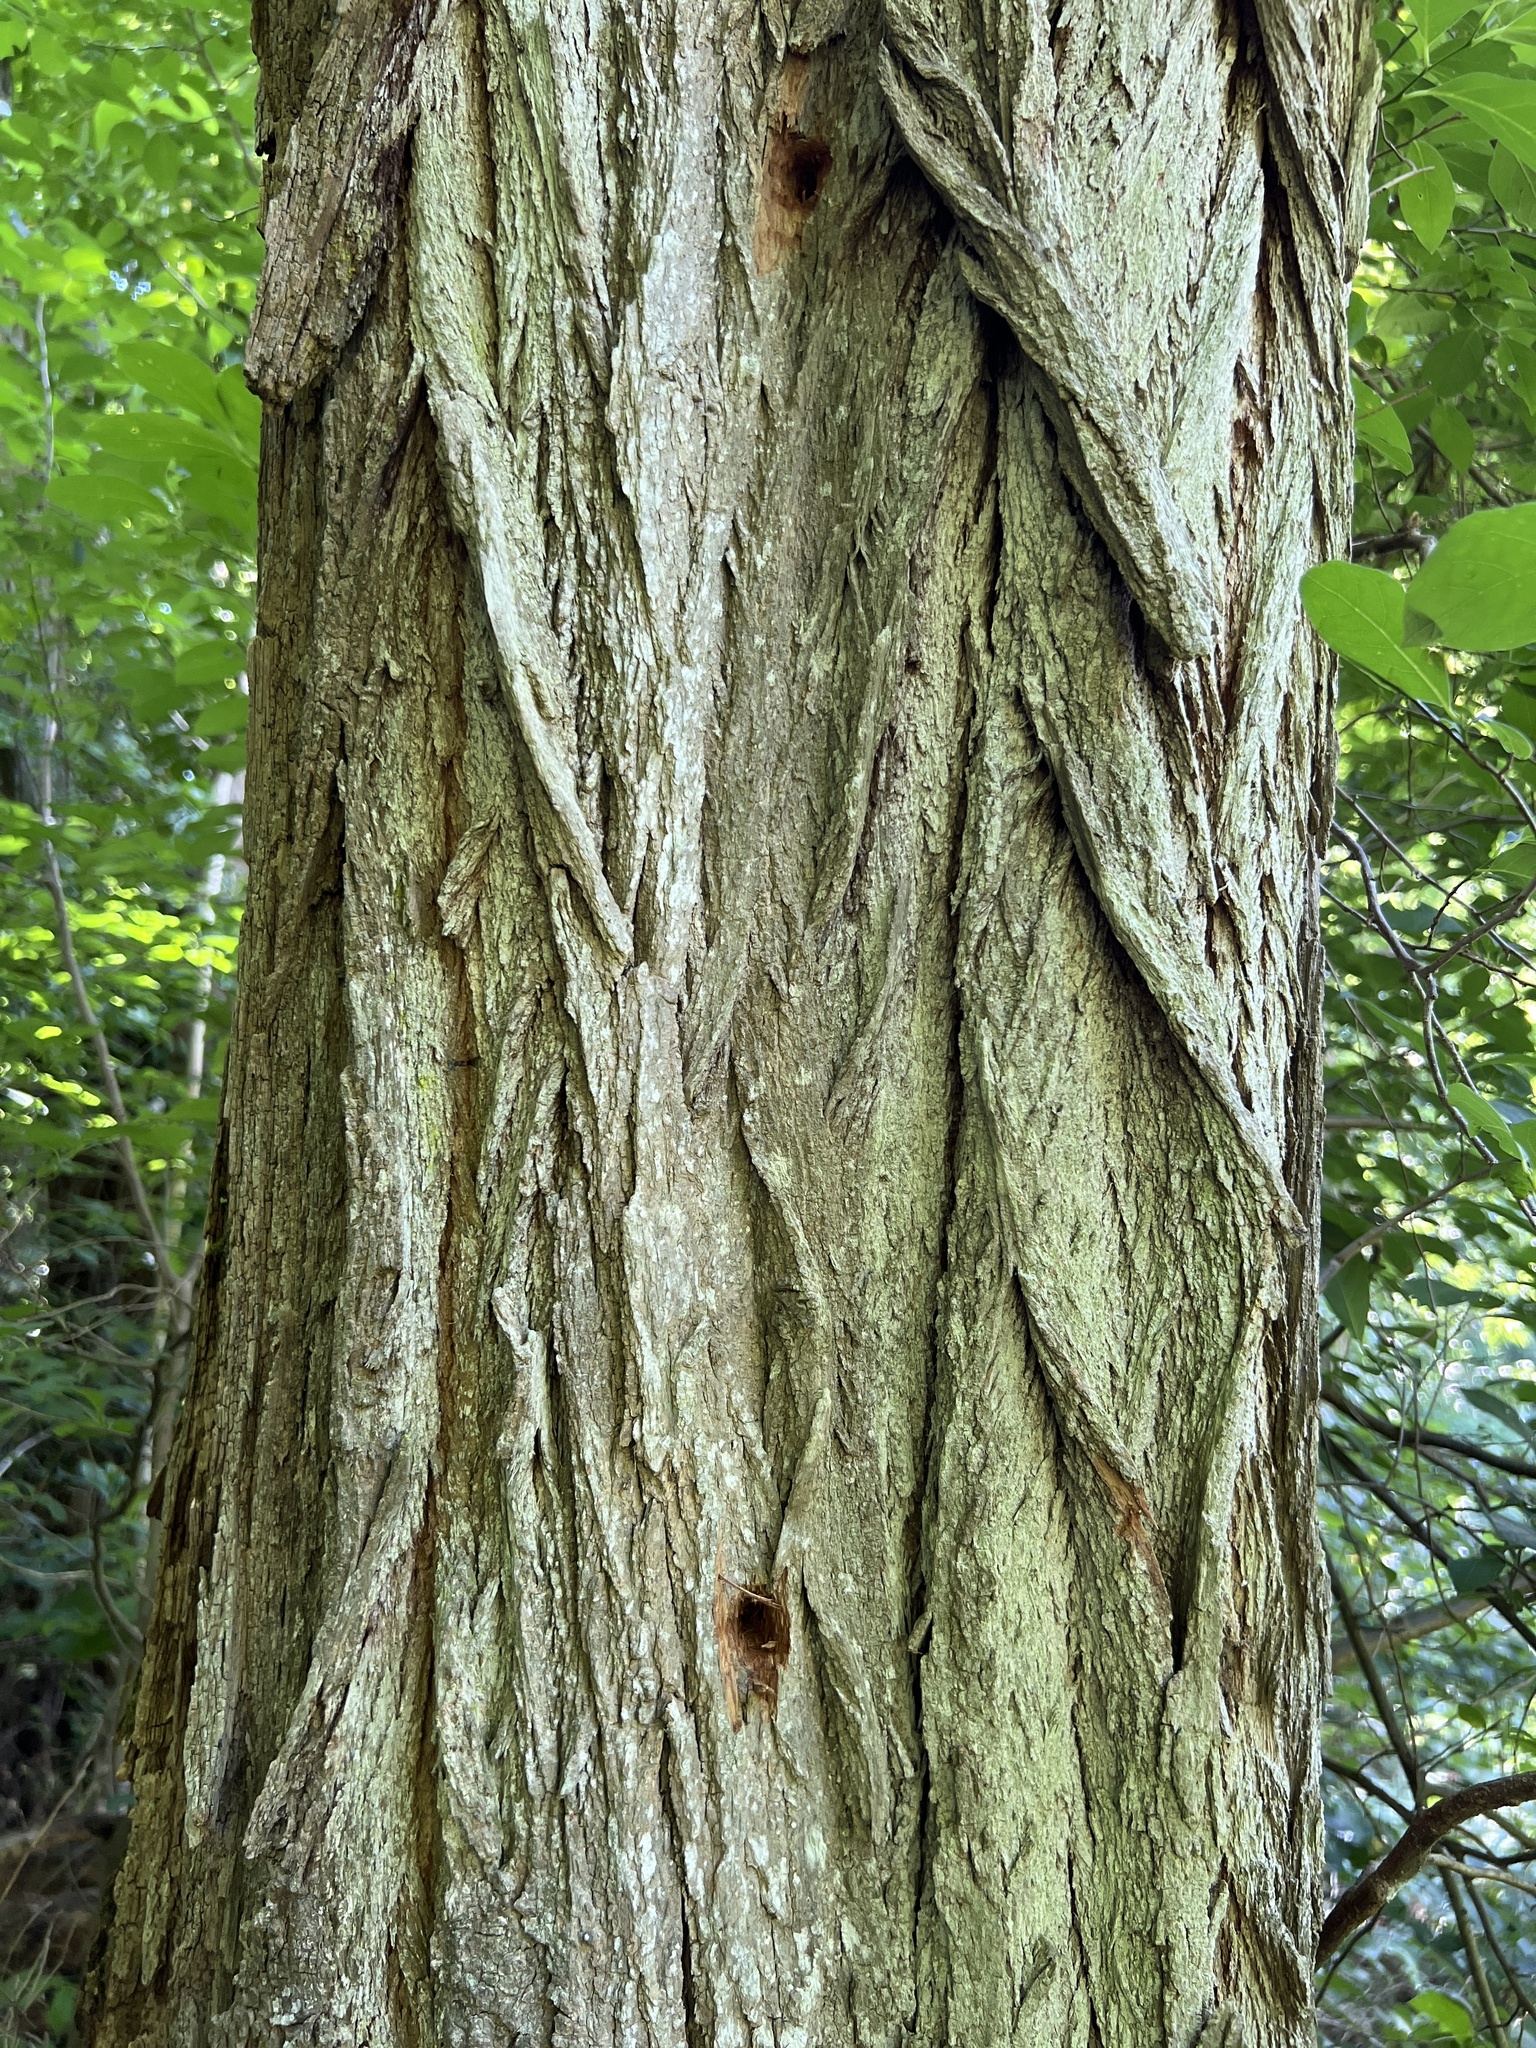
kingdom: Plantae
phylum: Tracheophyta
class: Magnoliopsida
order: Fabales
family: Fabaceae
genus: Robinia
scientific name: Robinia pseudoacacia
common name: Black locust
